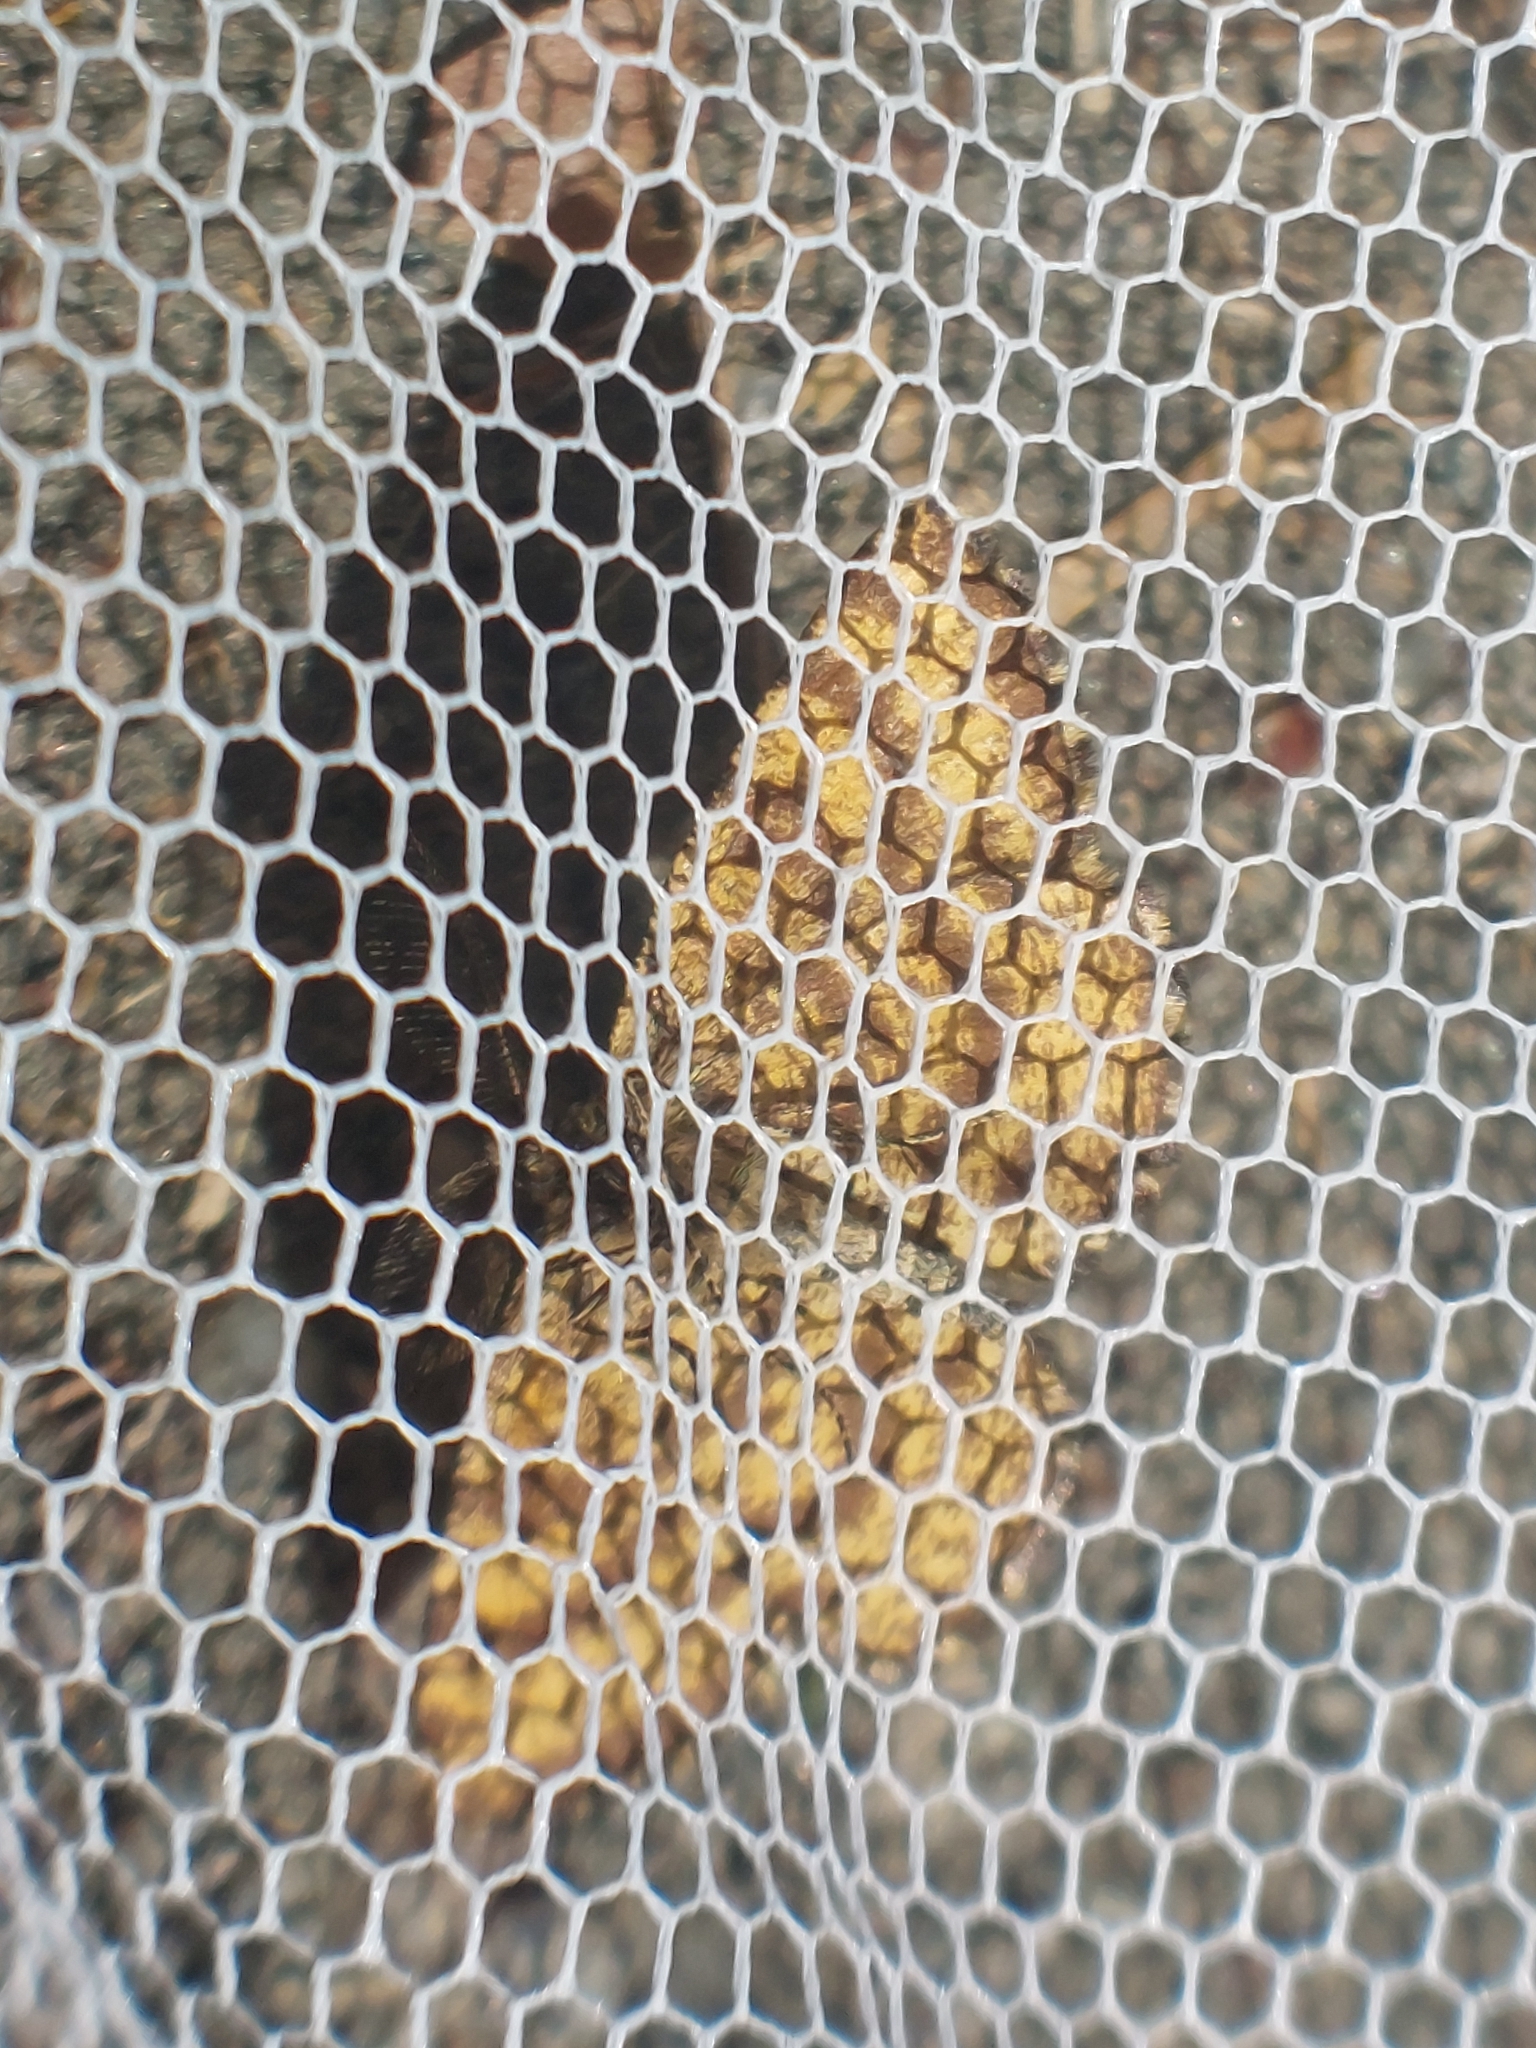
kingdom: Animalia
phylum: Arthropoda
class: Insecta
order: Lepidoptera
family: Geometridae
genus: Ematurga
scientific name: Ematurga atomaria
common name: Common heath
